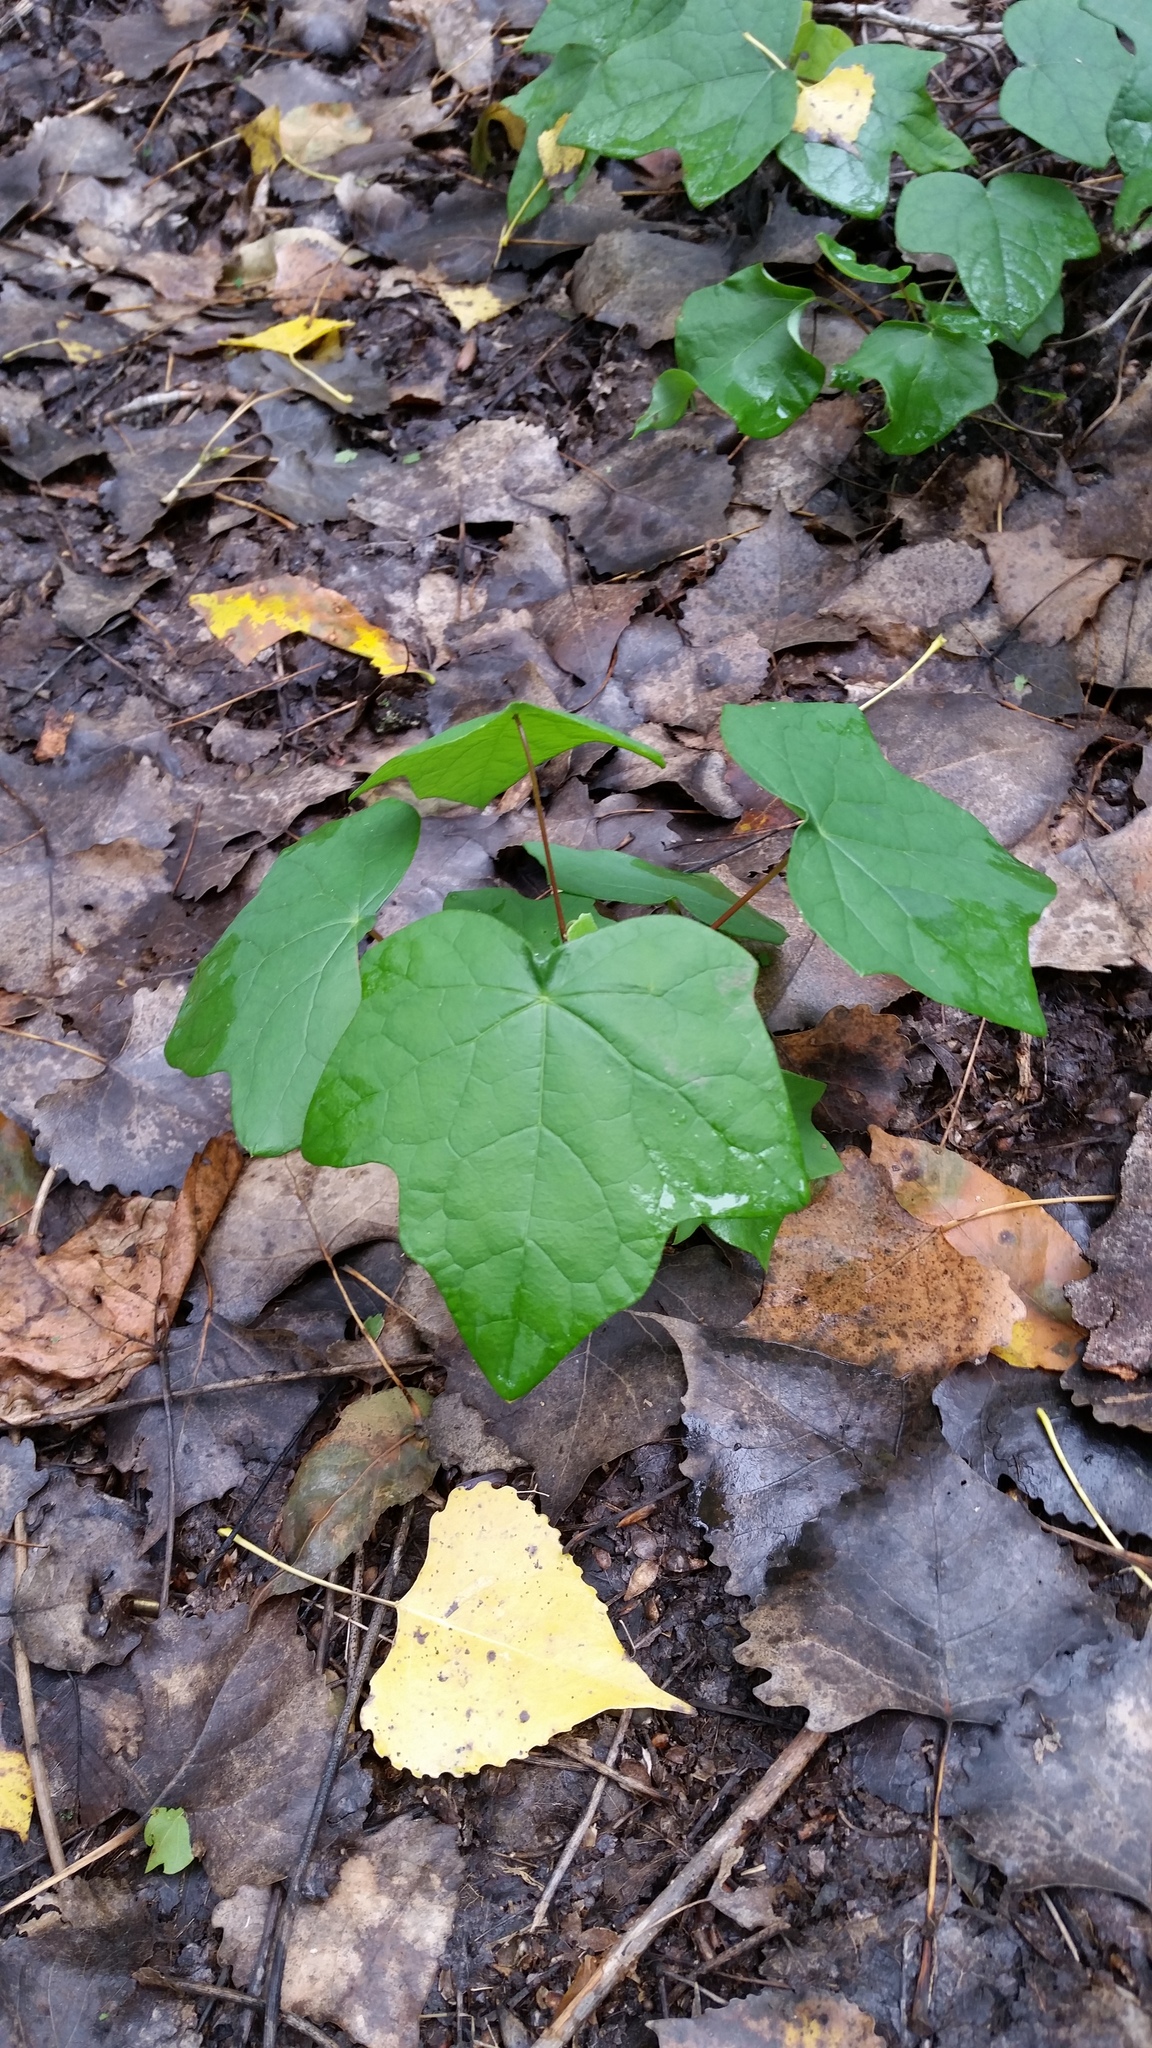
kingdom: Plantae
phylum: Tracheophyta
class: Magnoliopsida
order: Ranunculales
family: Menispermaceae
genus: Menispermum
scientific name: Menispermum canadense
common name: Moonseed
